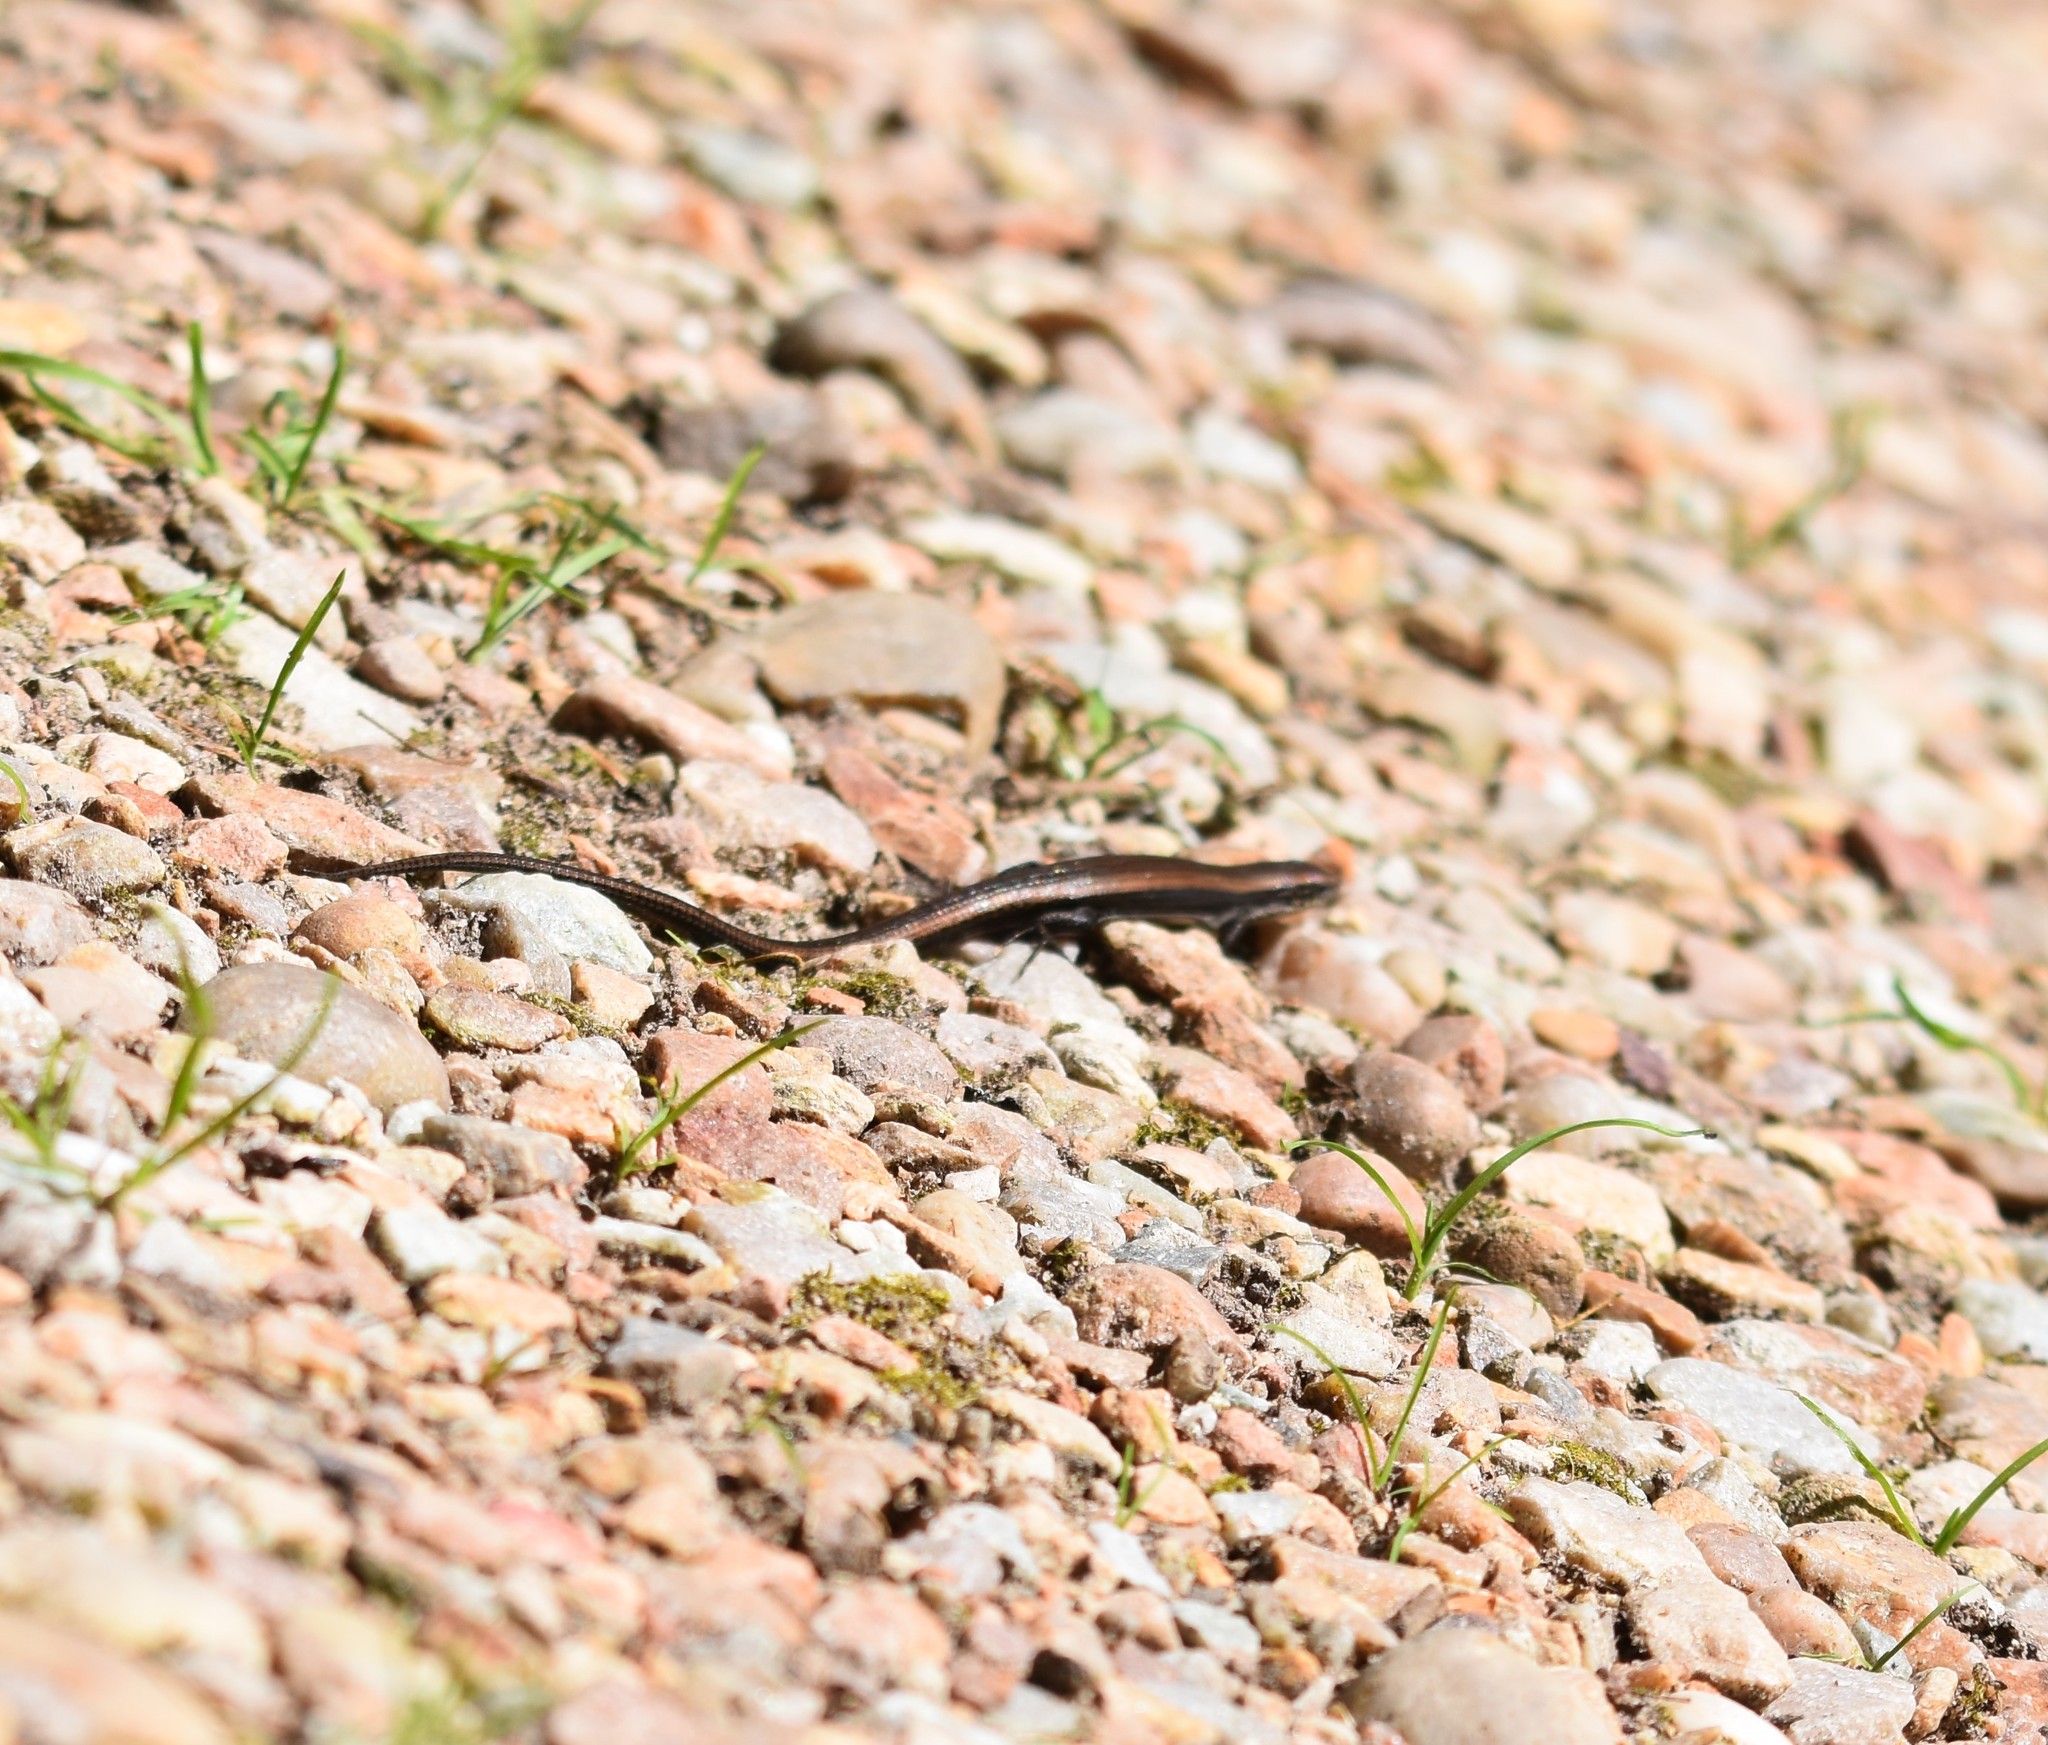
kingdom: Animalia
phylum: Chordata
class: Squamata
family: Gerrhosauridae
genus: Tetradactylus
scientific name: Tetradactylus seps
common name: Five-toed whip lizard
